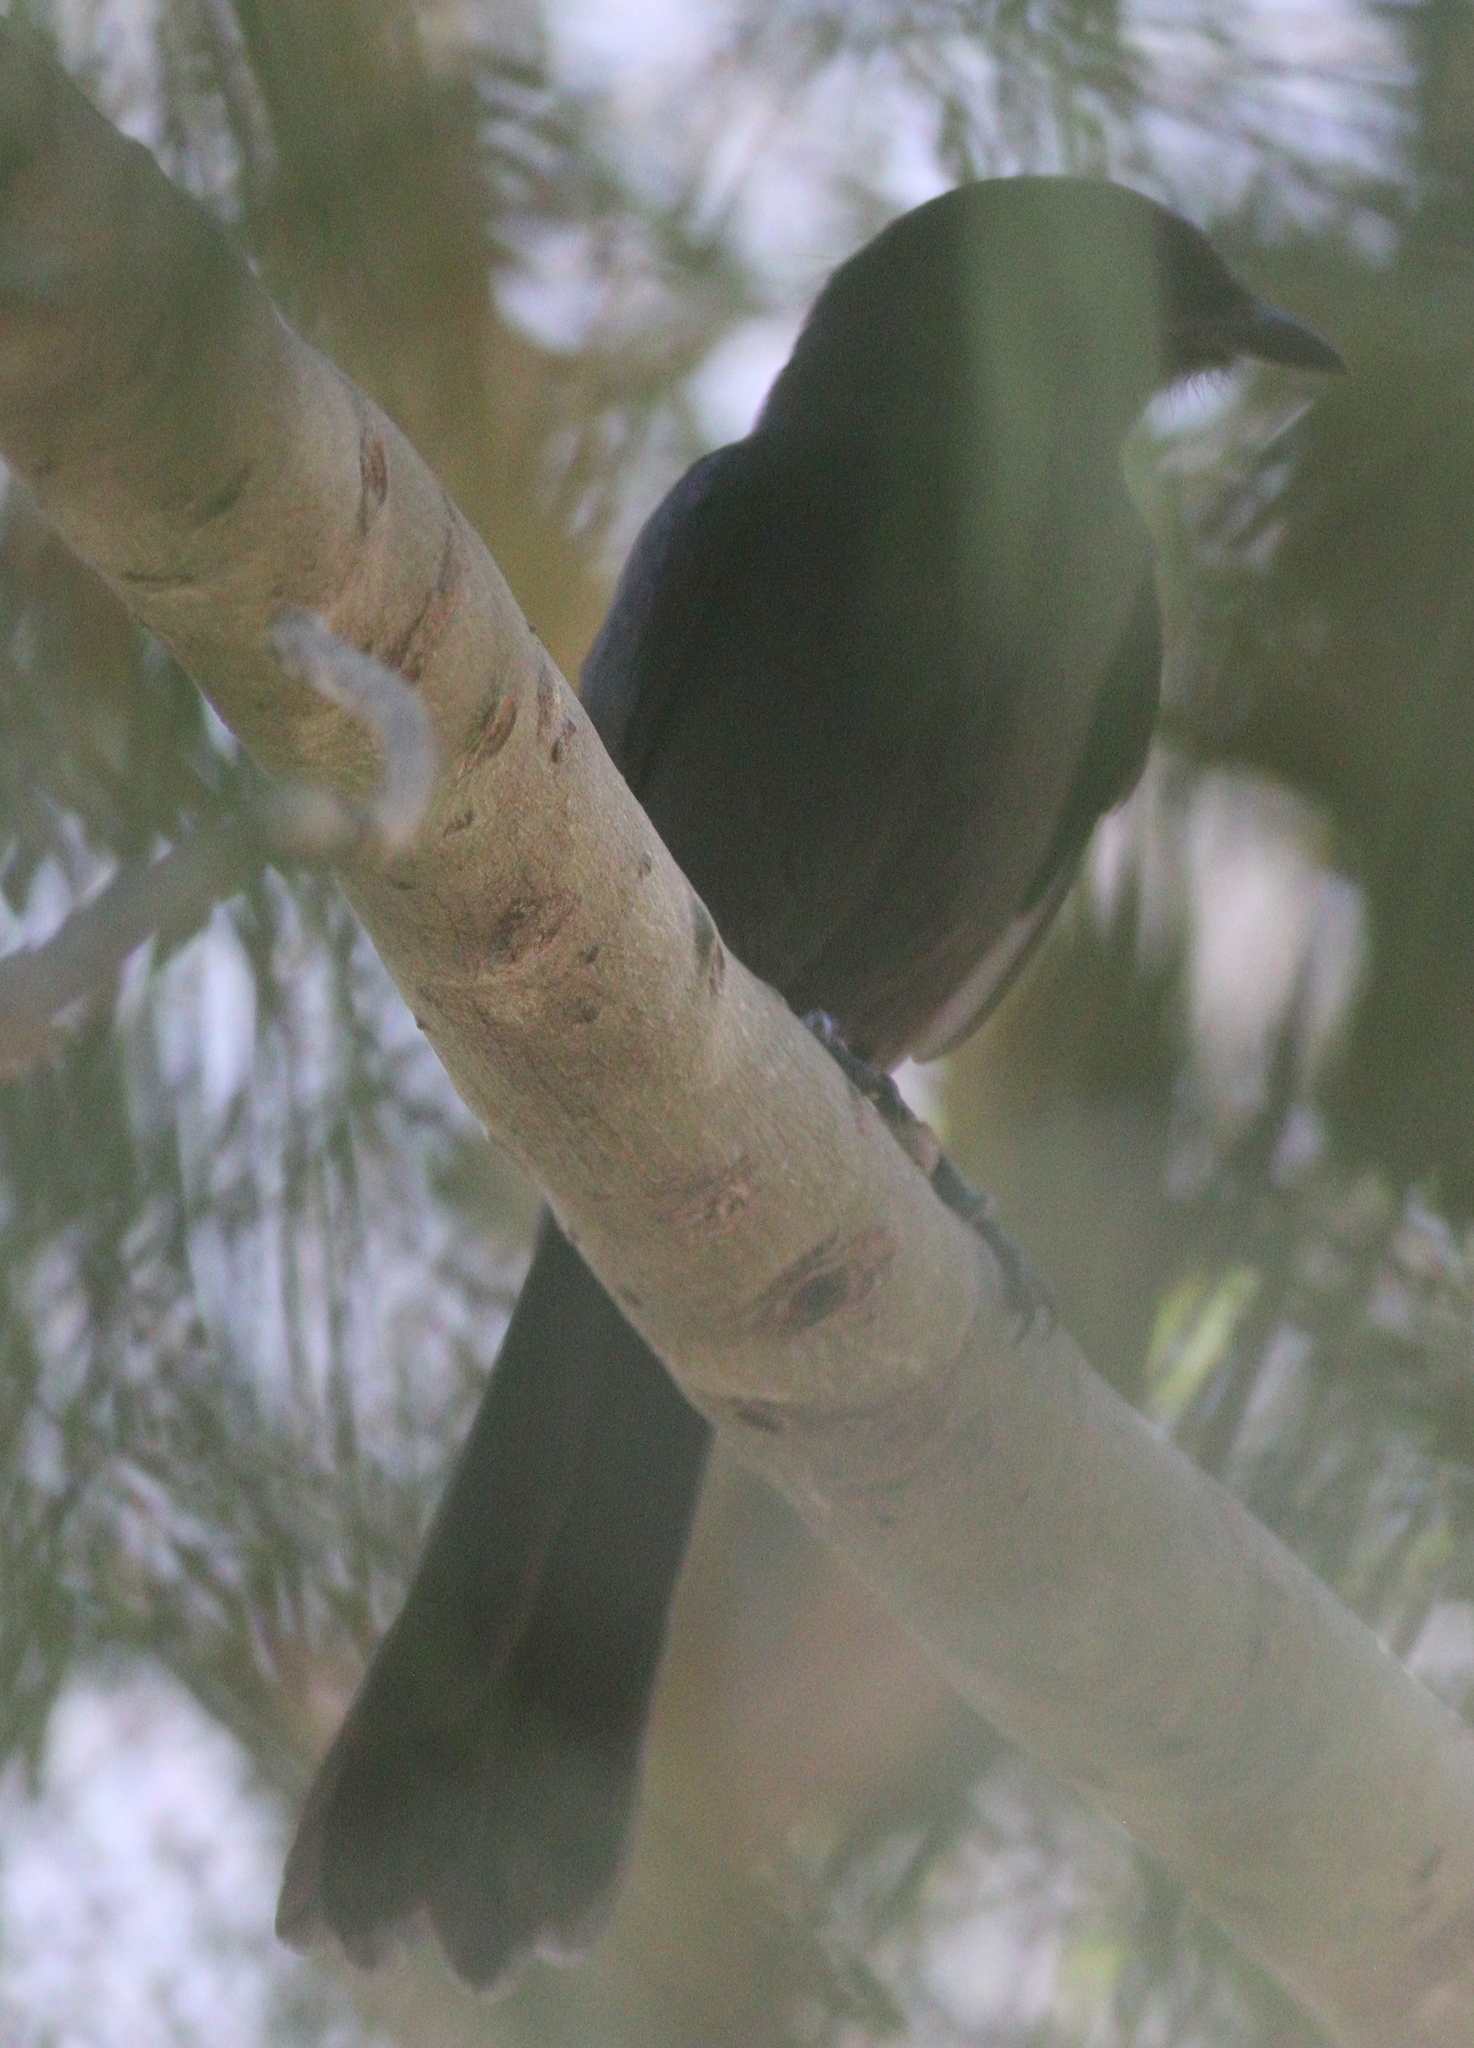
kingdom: Animalia
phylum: Chordata
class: Aves
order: Passeriformes
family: Muscicapidae
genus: Melaenornis
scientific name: Melaenornis edolioides
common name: Northern black flycatcher
